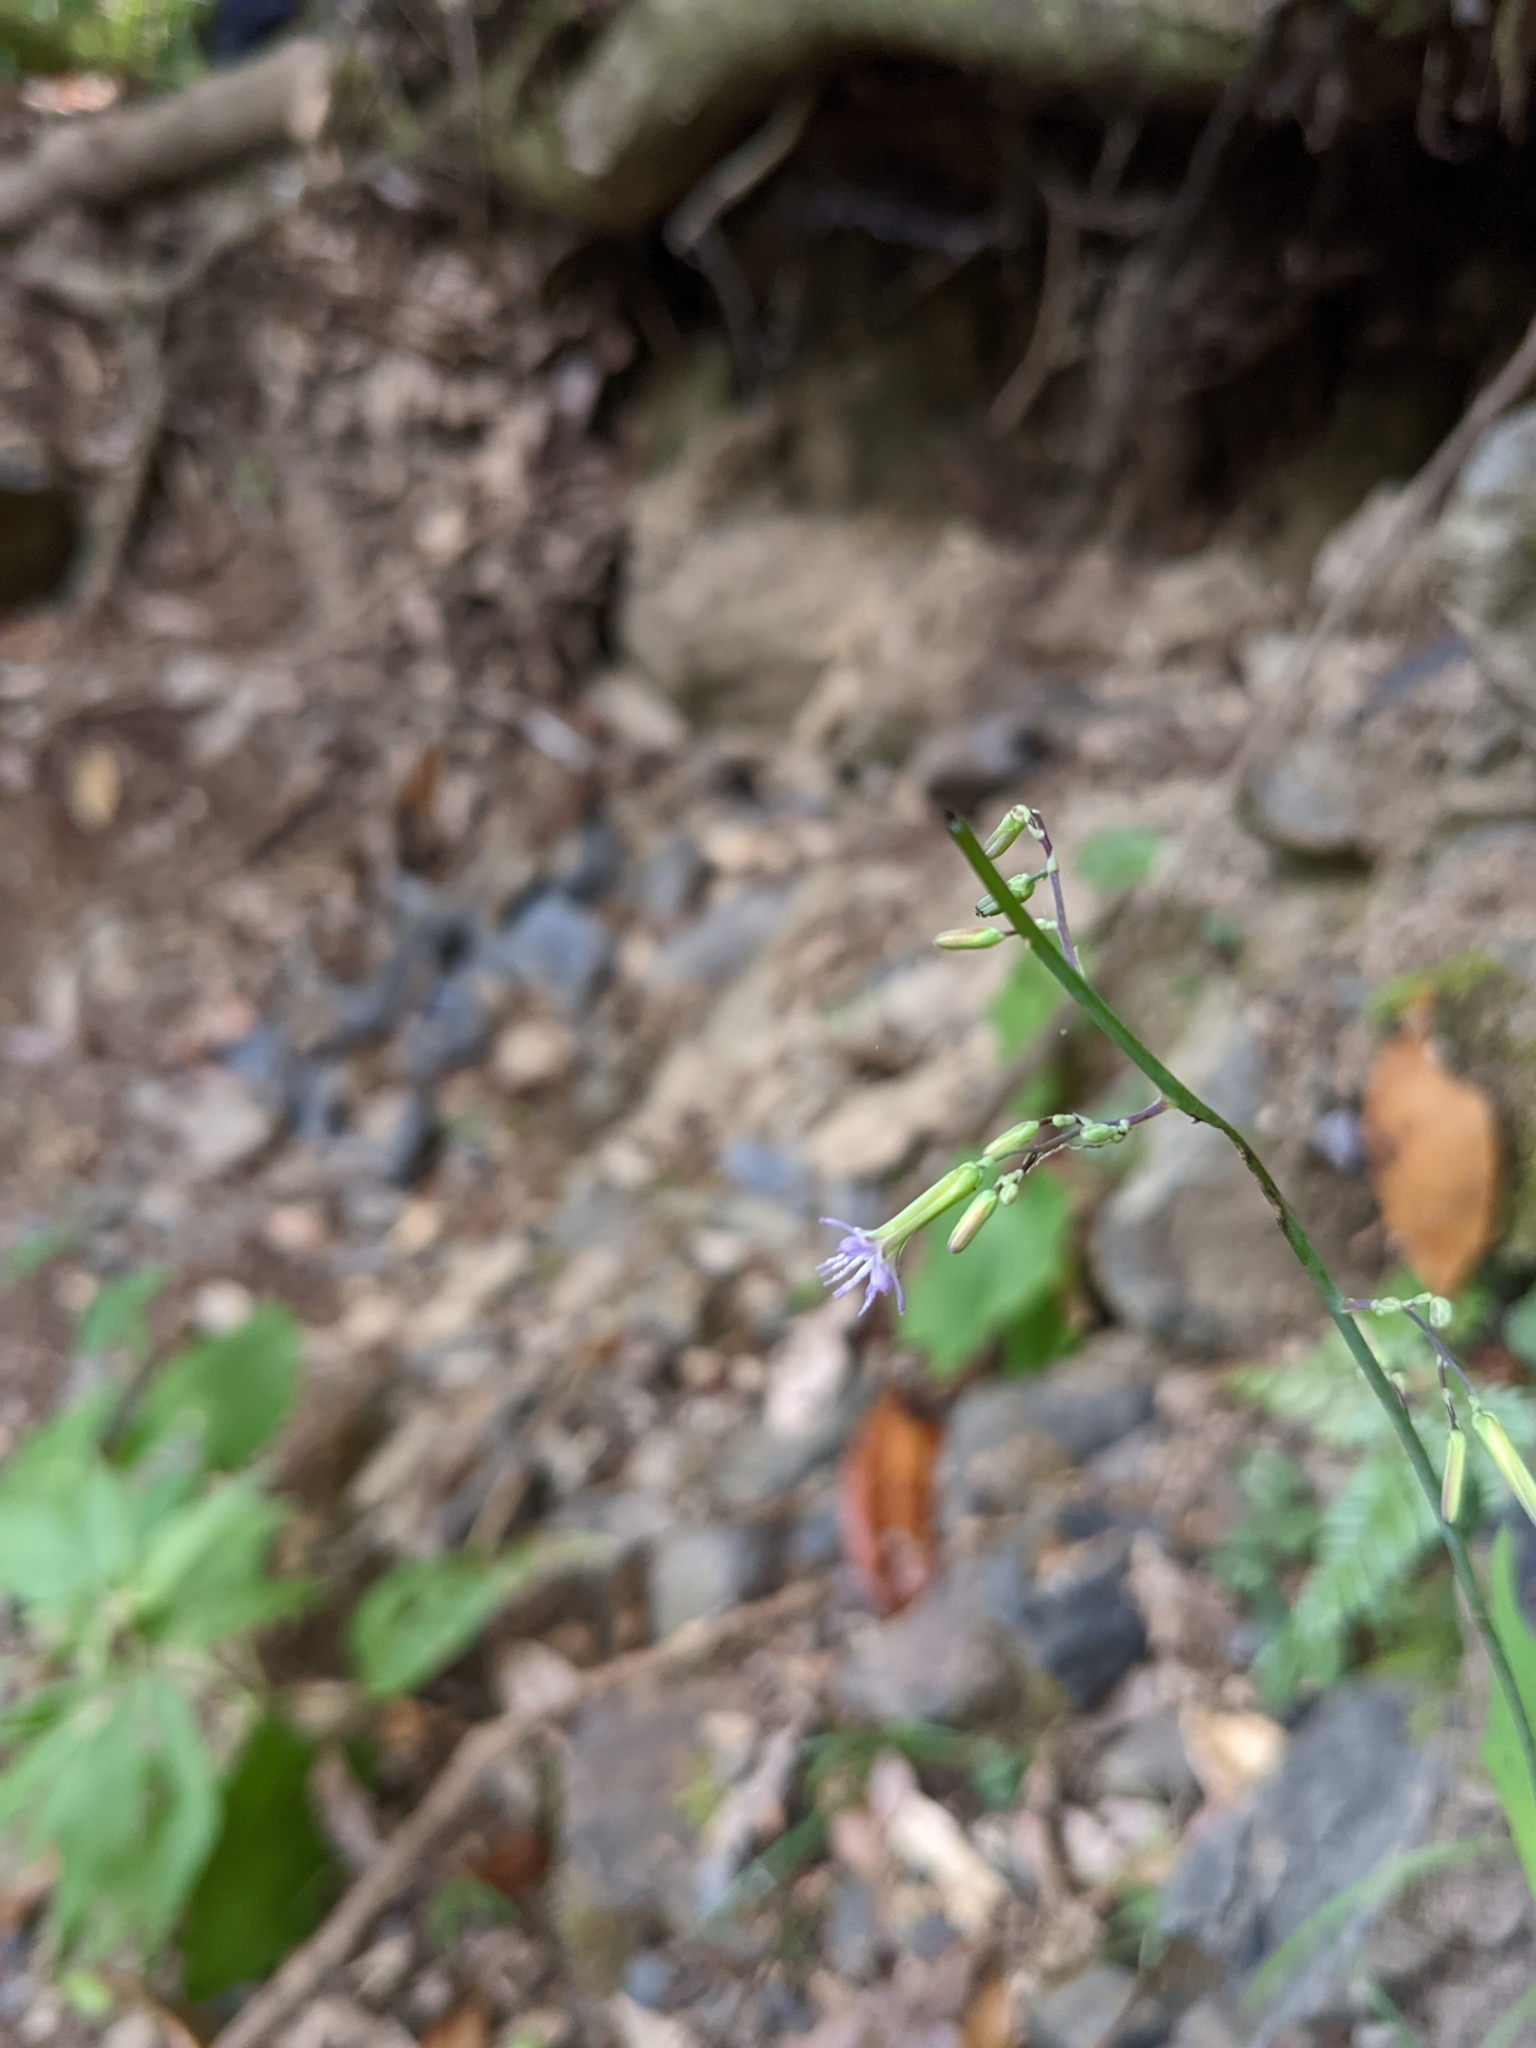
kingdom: Plantae
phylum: Tracheophyta
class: Magnoliopsida
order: Asterales
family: Asteraceae
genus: Paraprenanthes
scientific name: Paraprenanthes sororia
